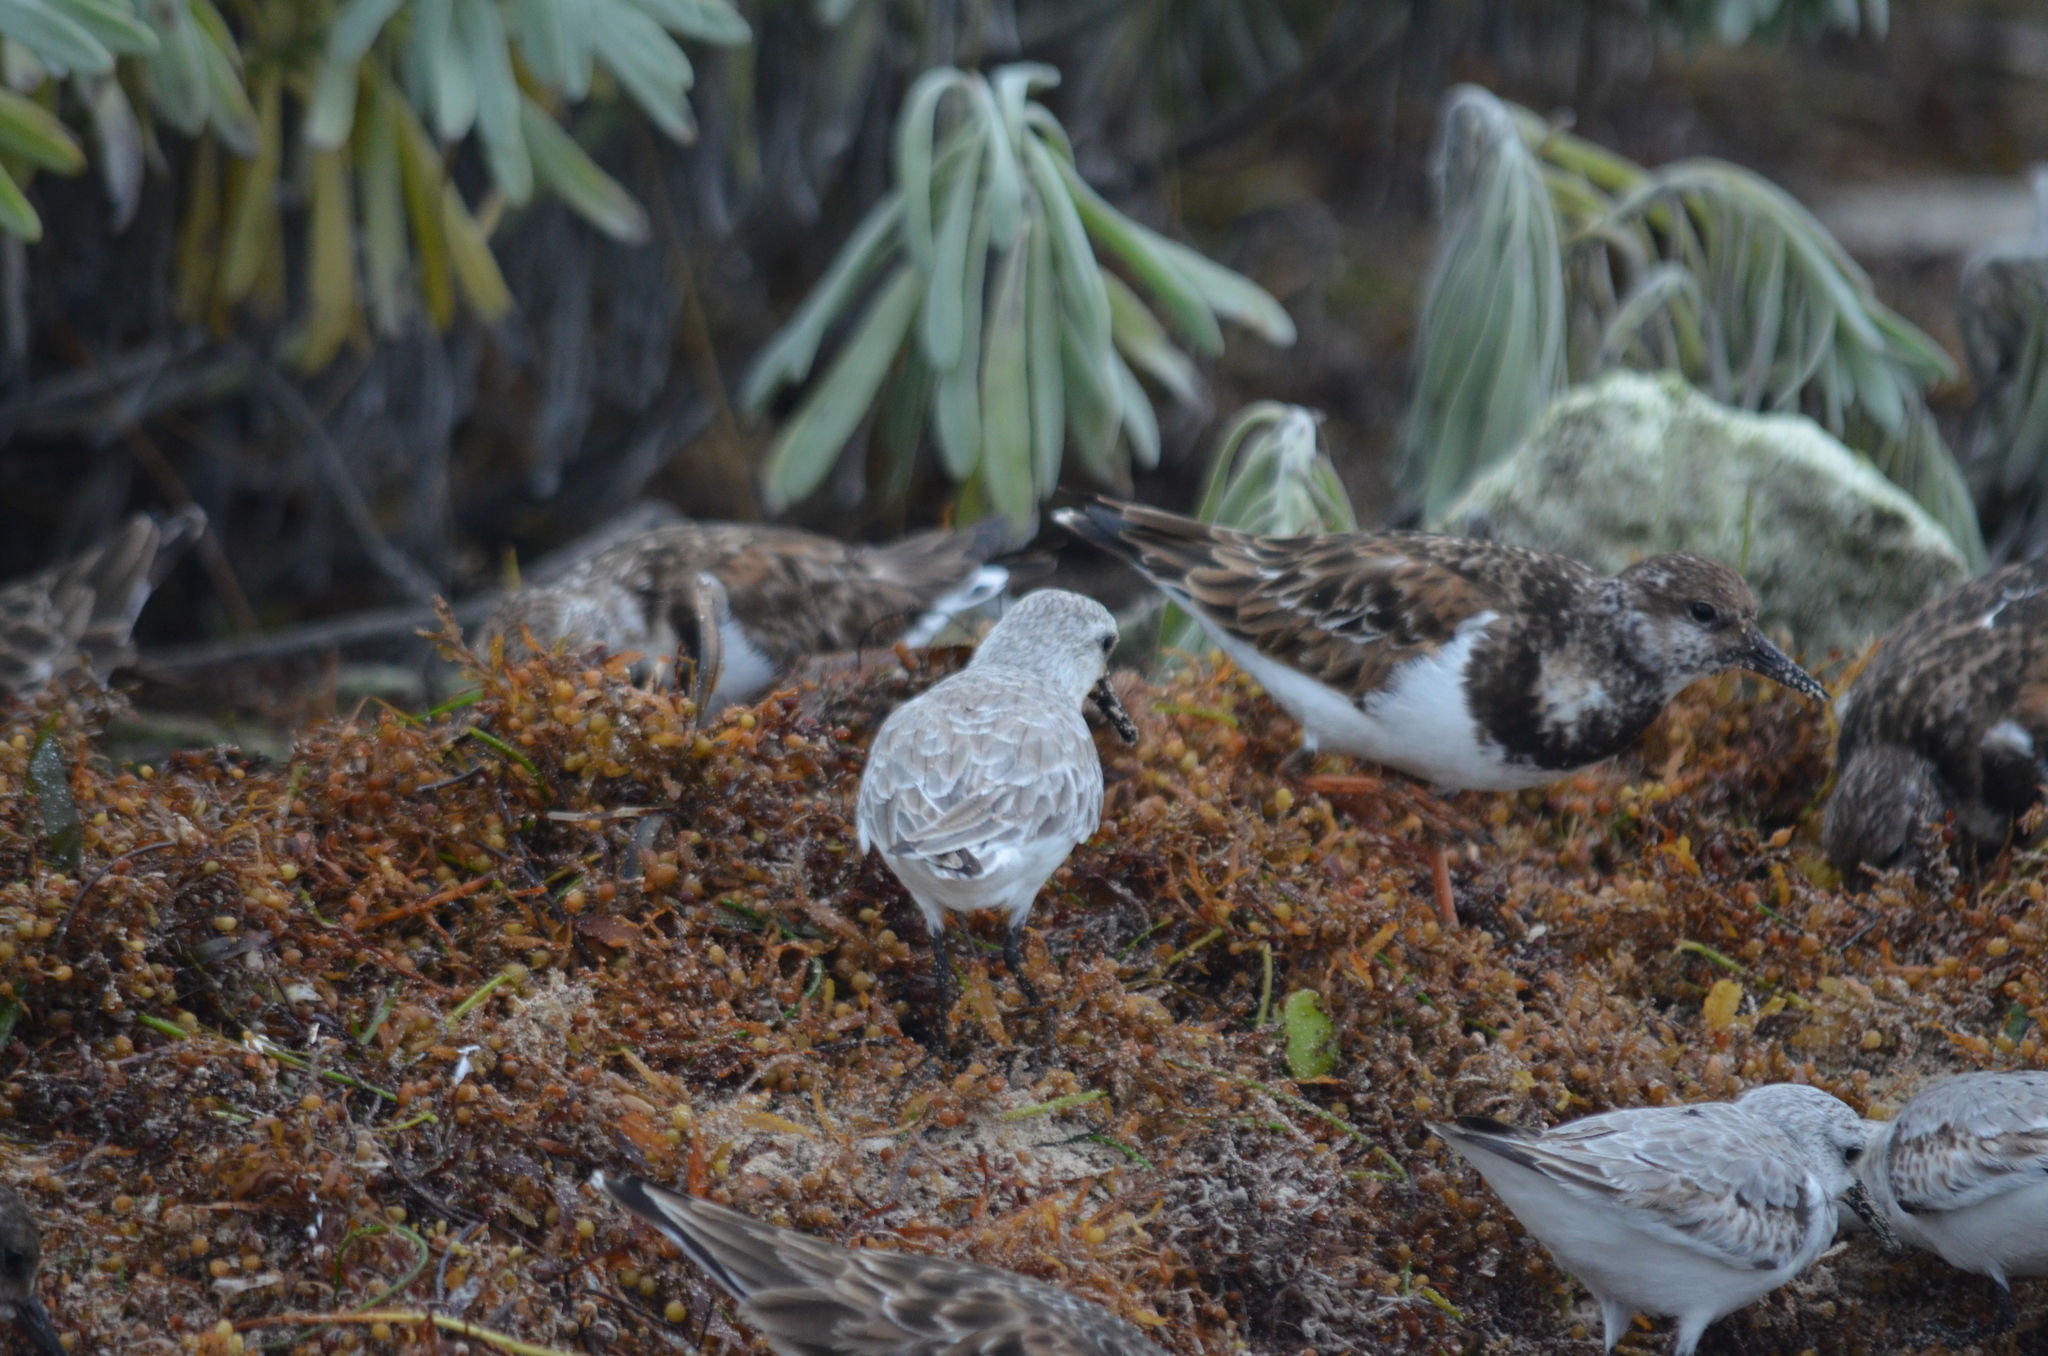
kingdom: Animalia
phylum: Chordata
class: Aves
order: Charadriiformes
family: Scolopacidae
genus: Arenaria
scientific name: Arenaria interpres
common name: Ruddy turnstone
